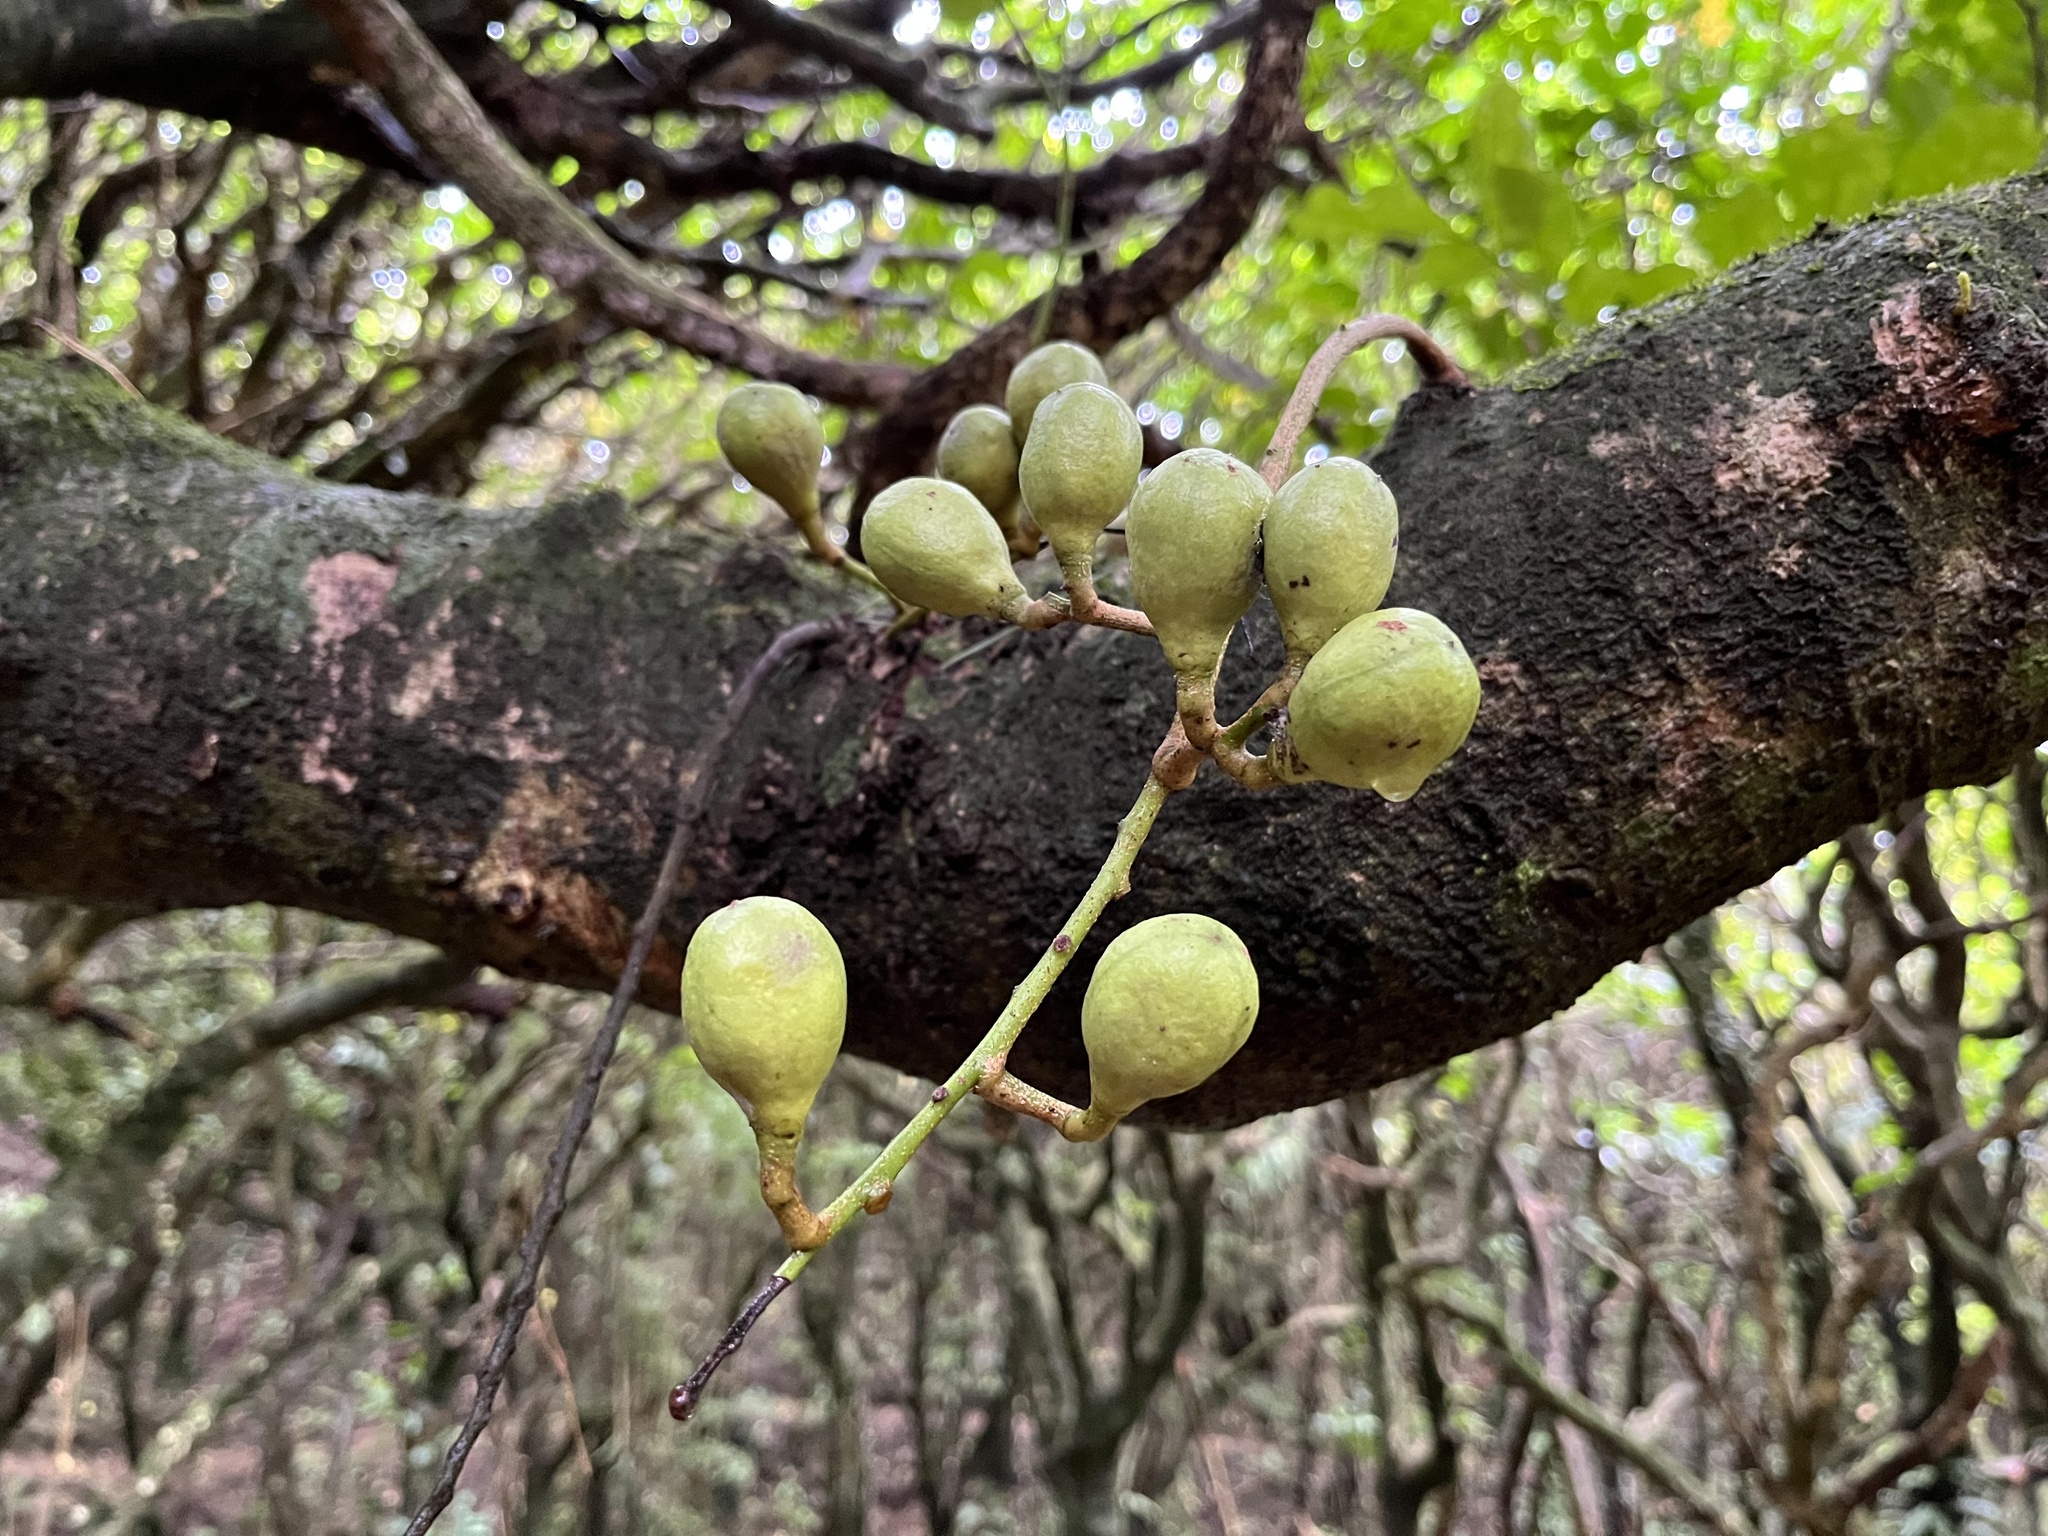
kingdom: Plantae
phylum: Tracheophyta
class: Magnoliopsida
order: Sapindales
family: Meliaceae
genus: Didymocheton
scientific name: Didymocheton spectabilis
